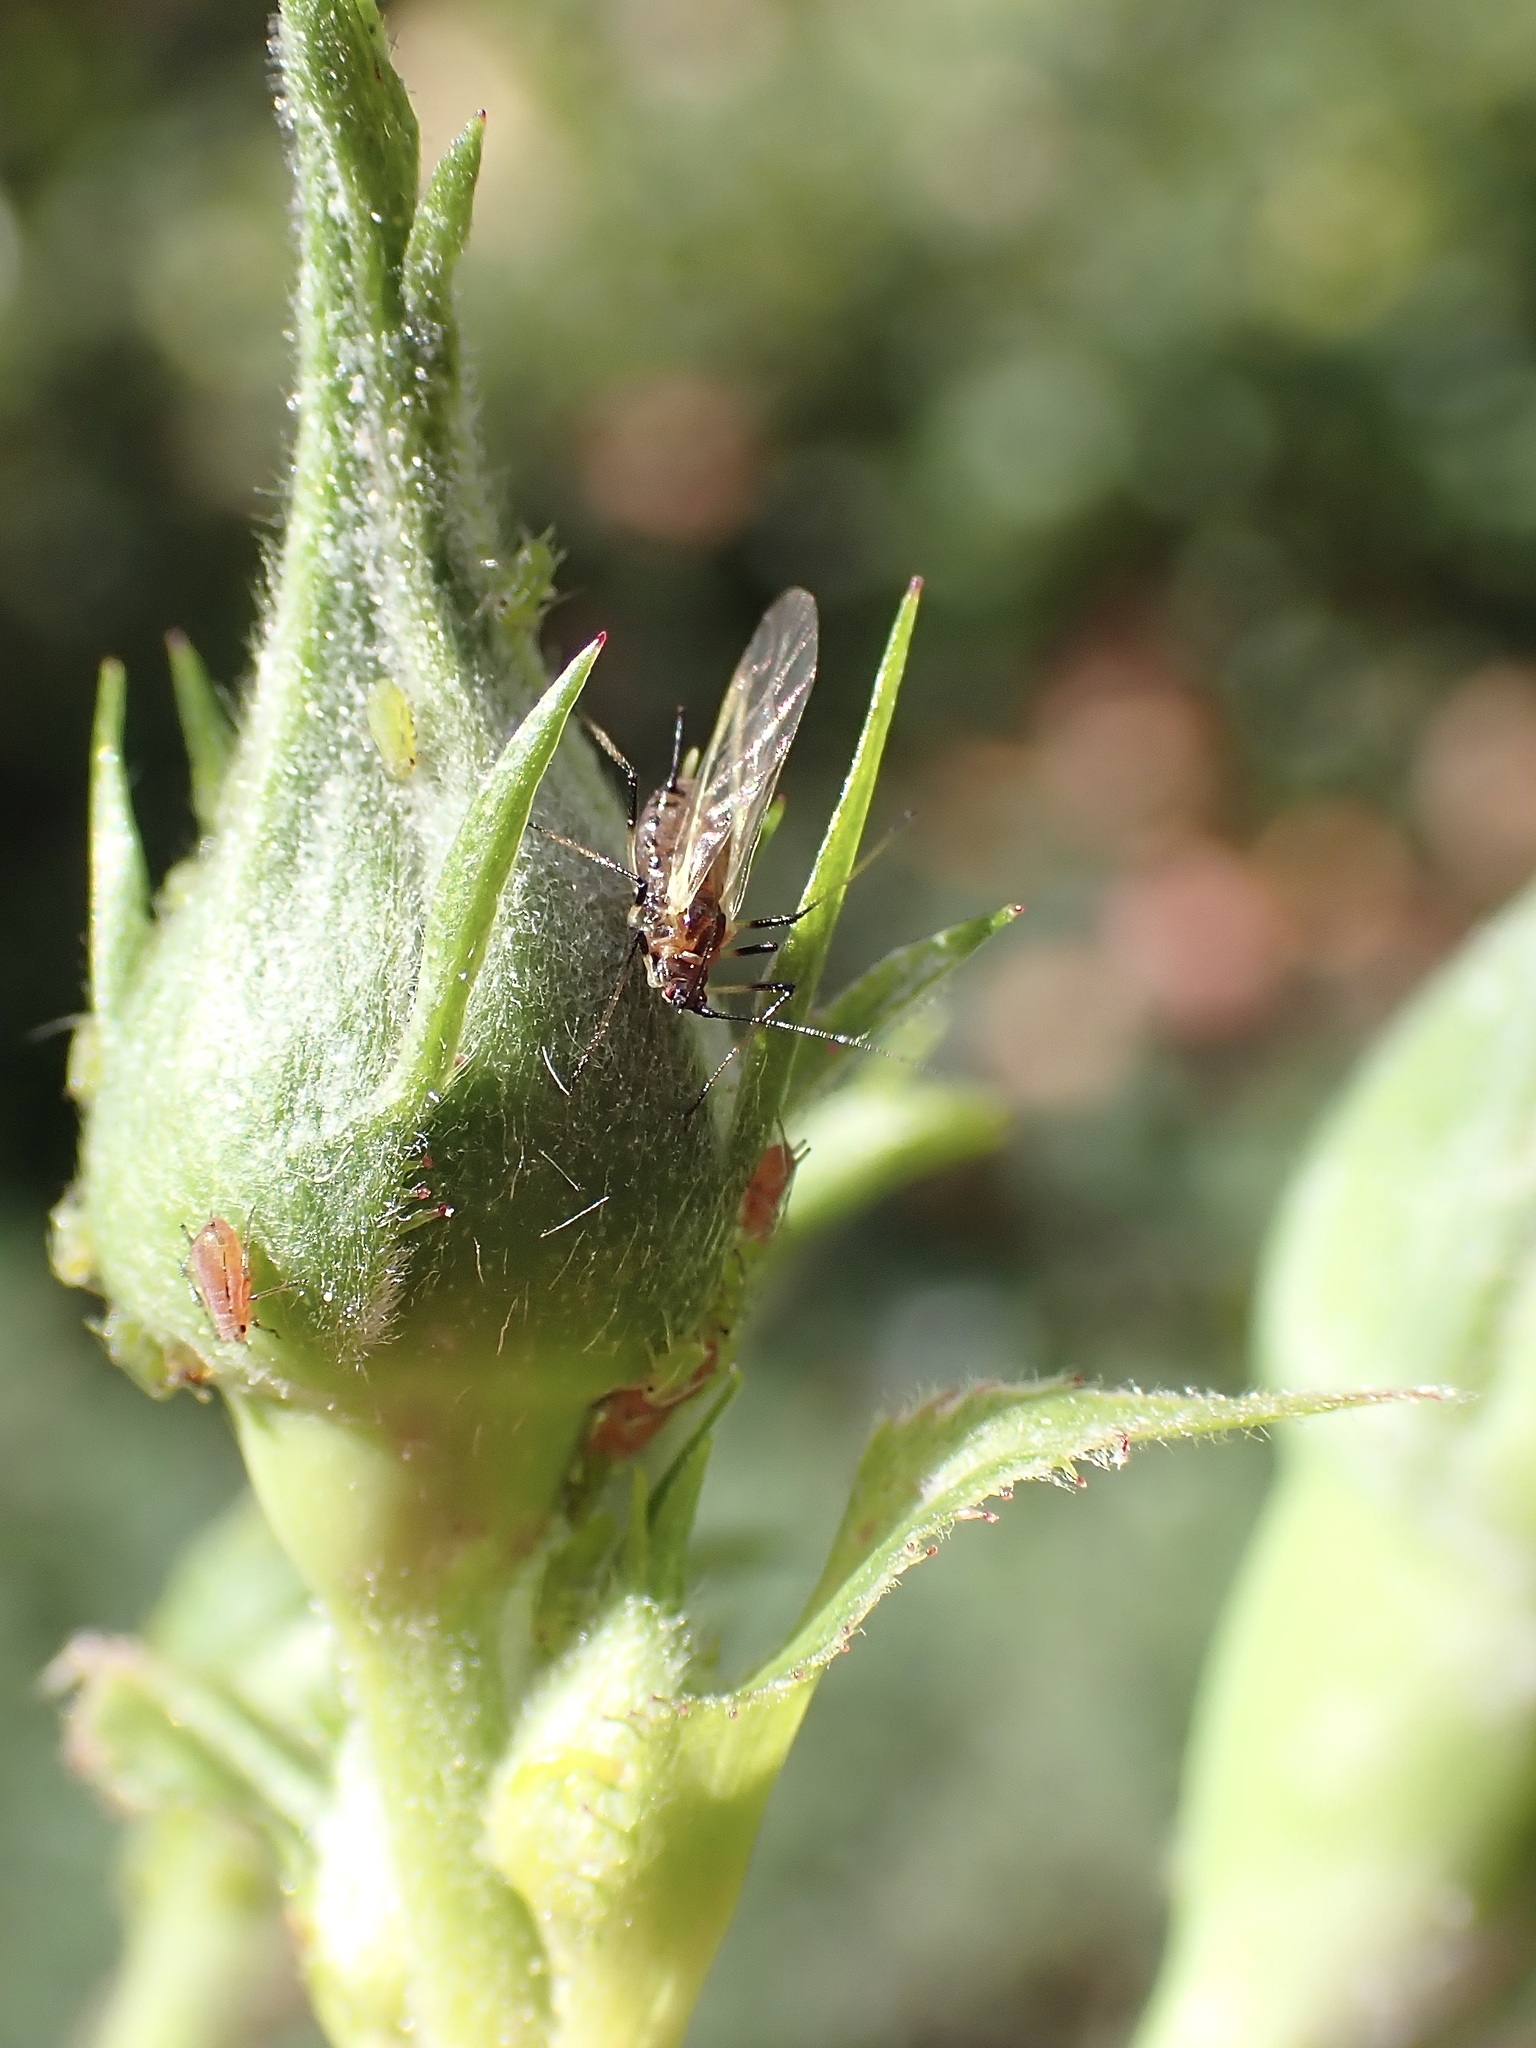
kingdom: Animalia
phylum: Arthropoda
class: Insecta
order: Hemiptera
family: Aphididae
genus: Macrosiphum
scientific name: Macrosiphum rosae
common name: Rose aphid
